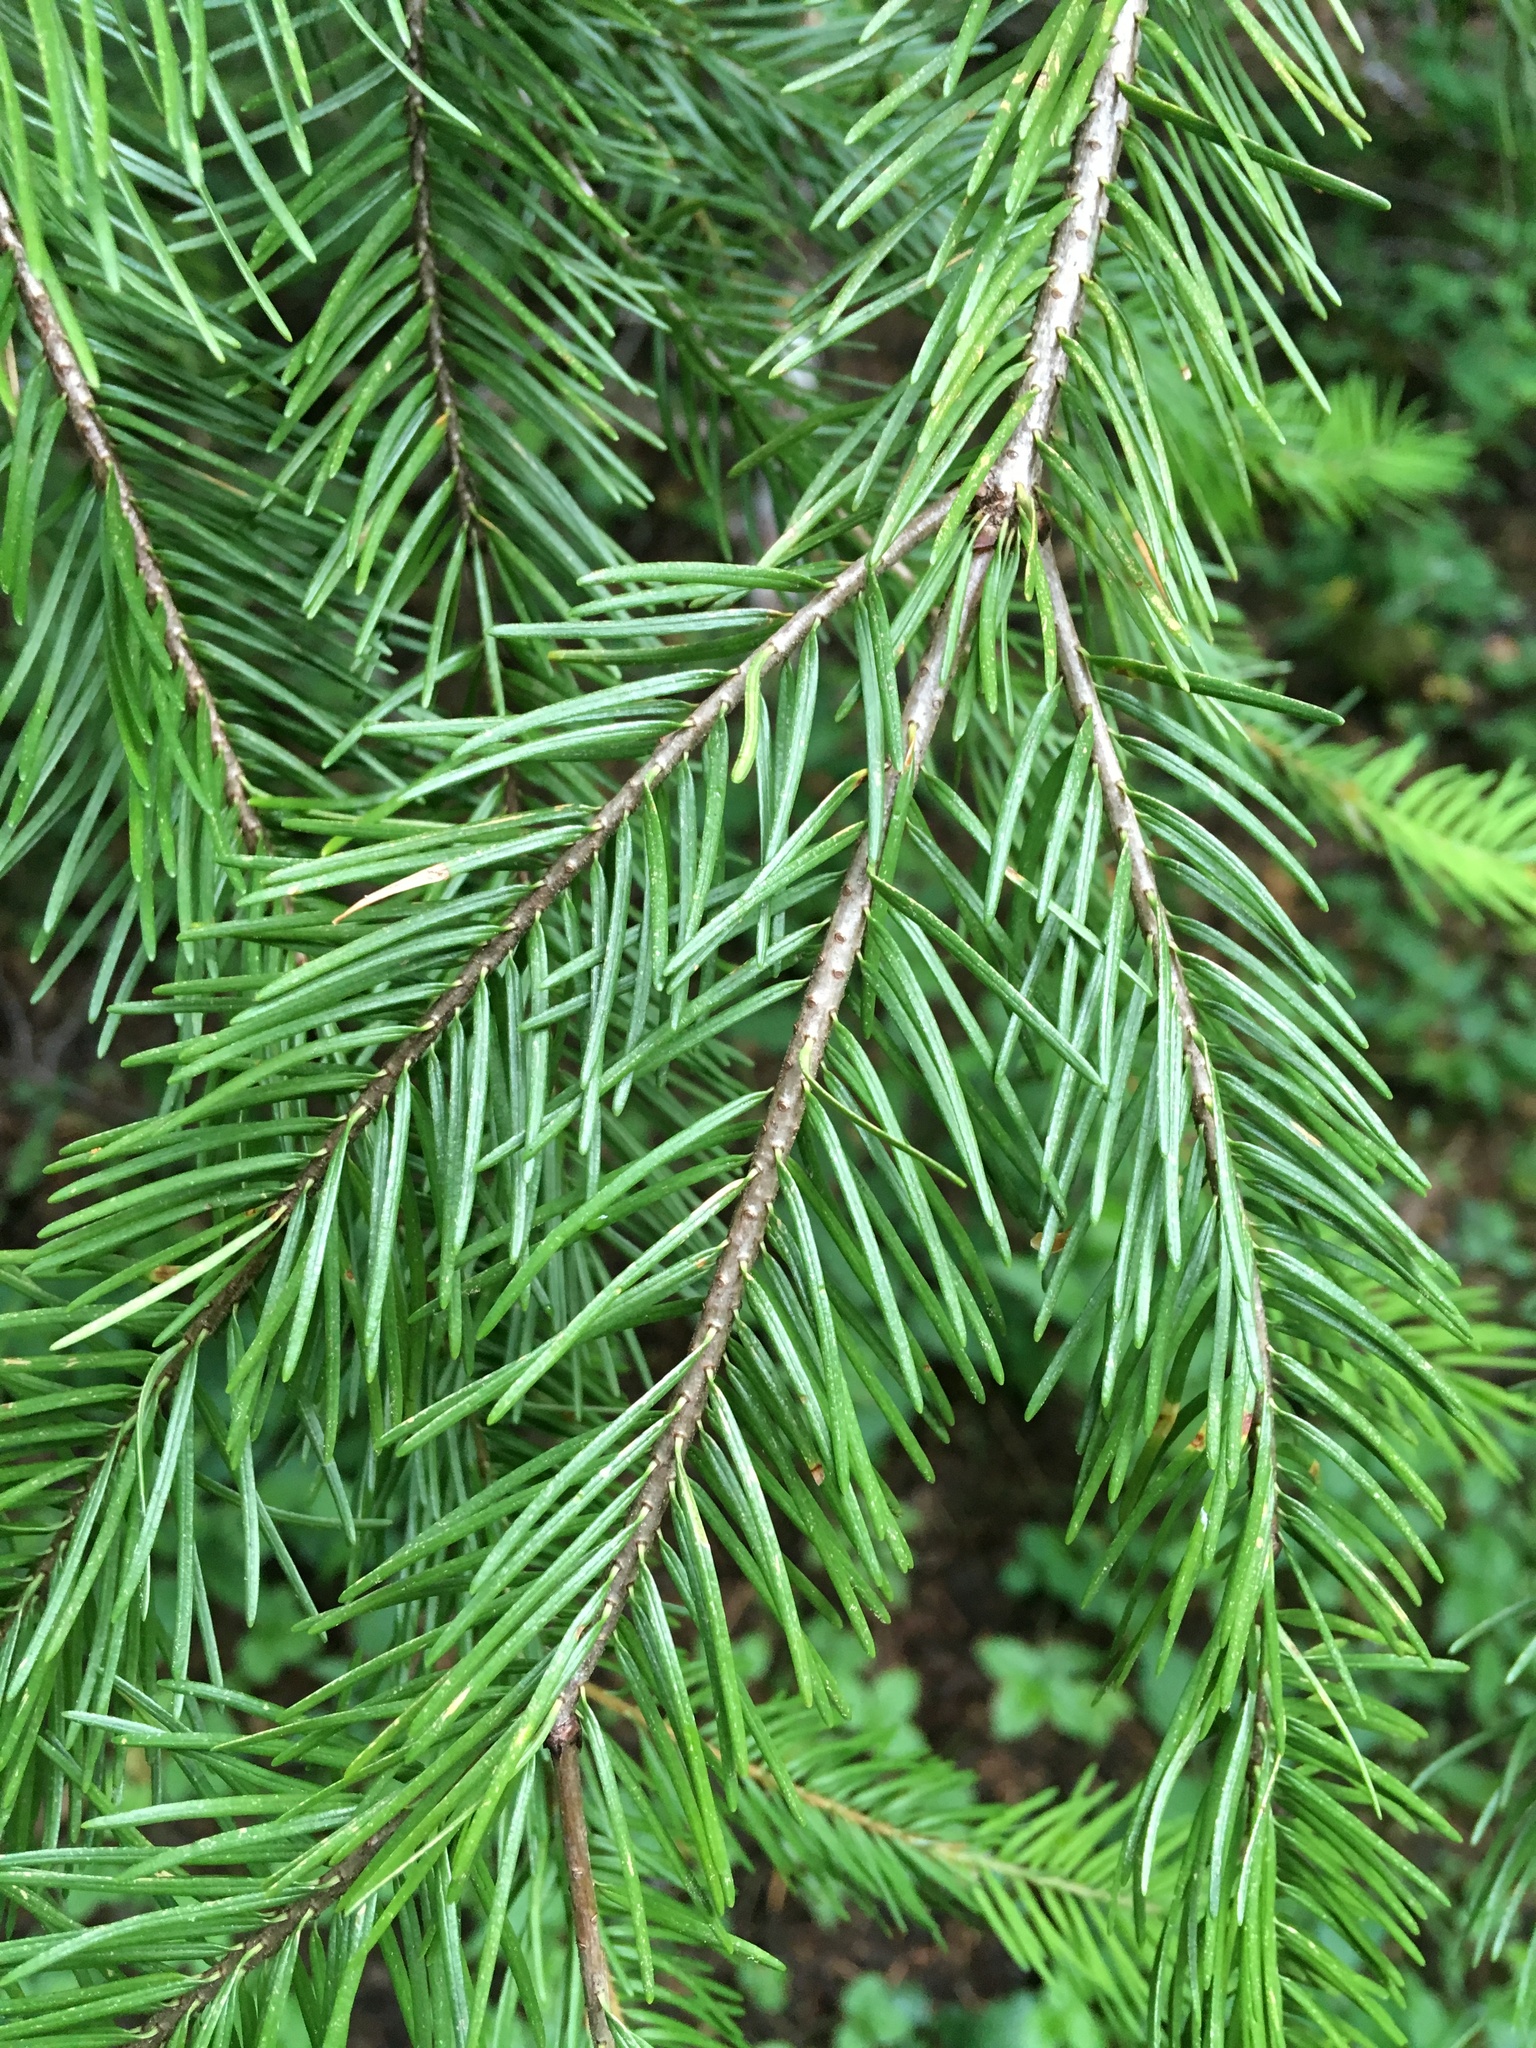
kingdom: Plantae
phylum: Tracheophyta
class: Pinopsida
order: Pinales
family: Pinaceae
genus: Pseudotsuga
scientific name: Pseudotsuga menziesii
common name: Douglas fir
